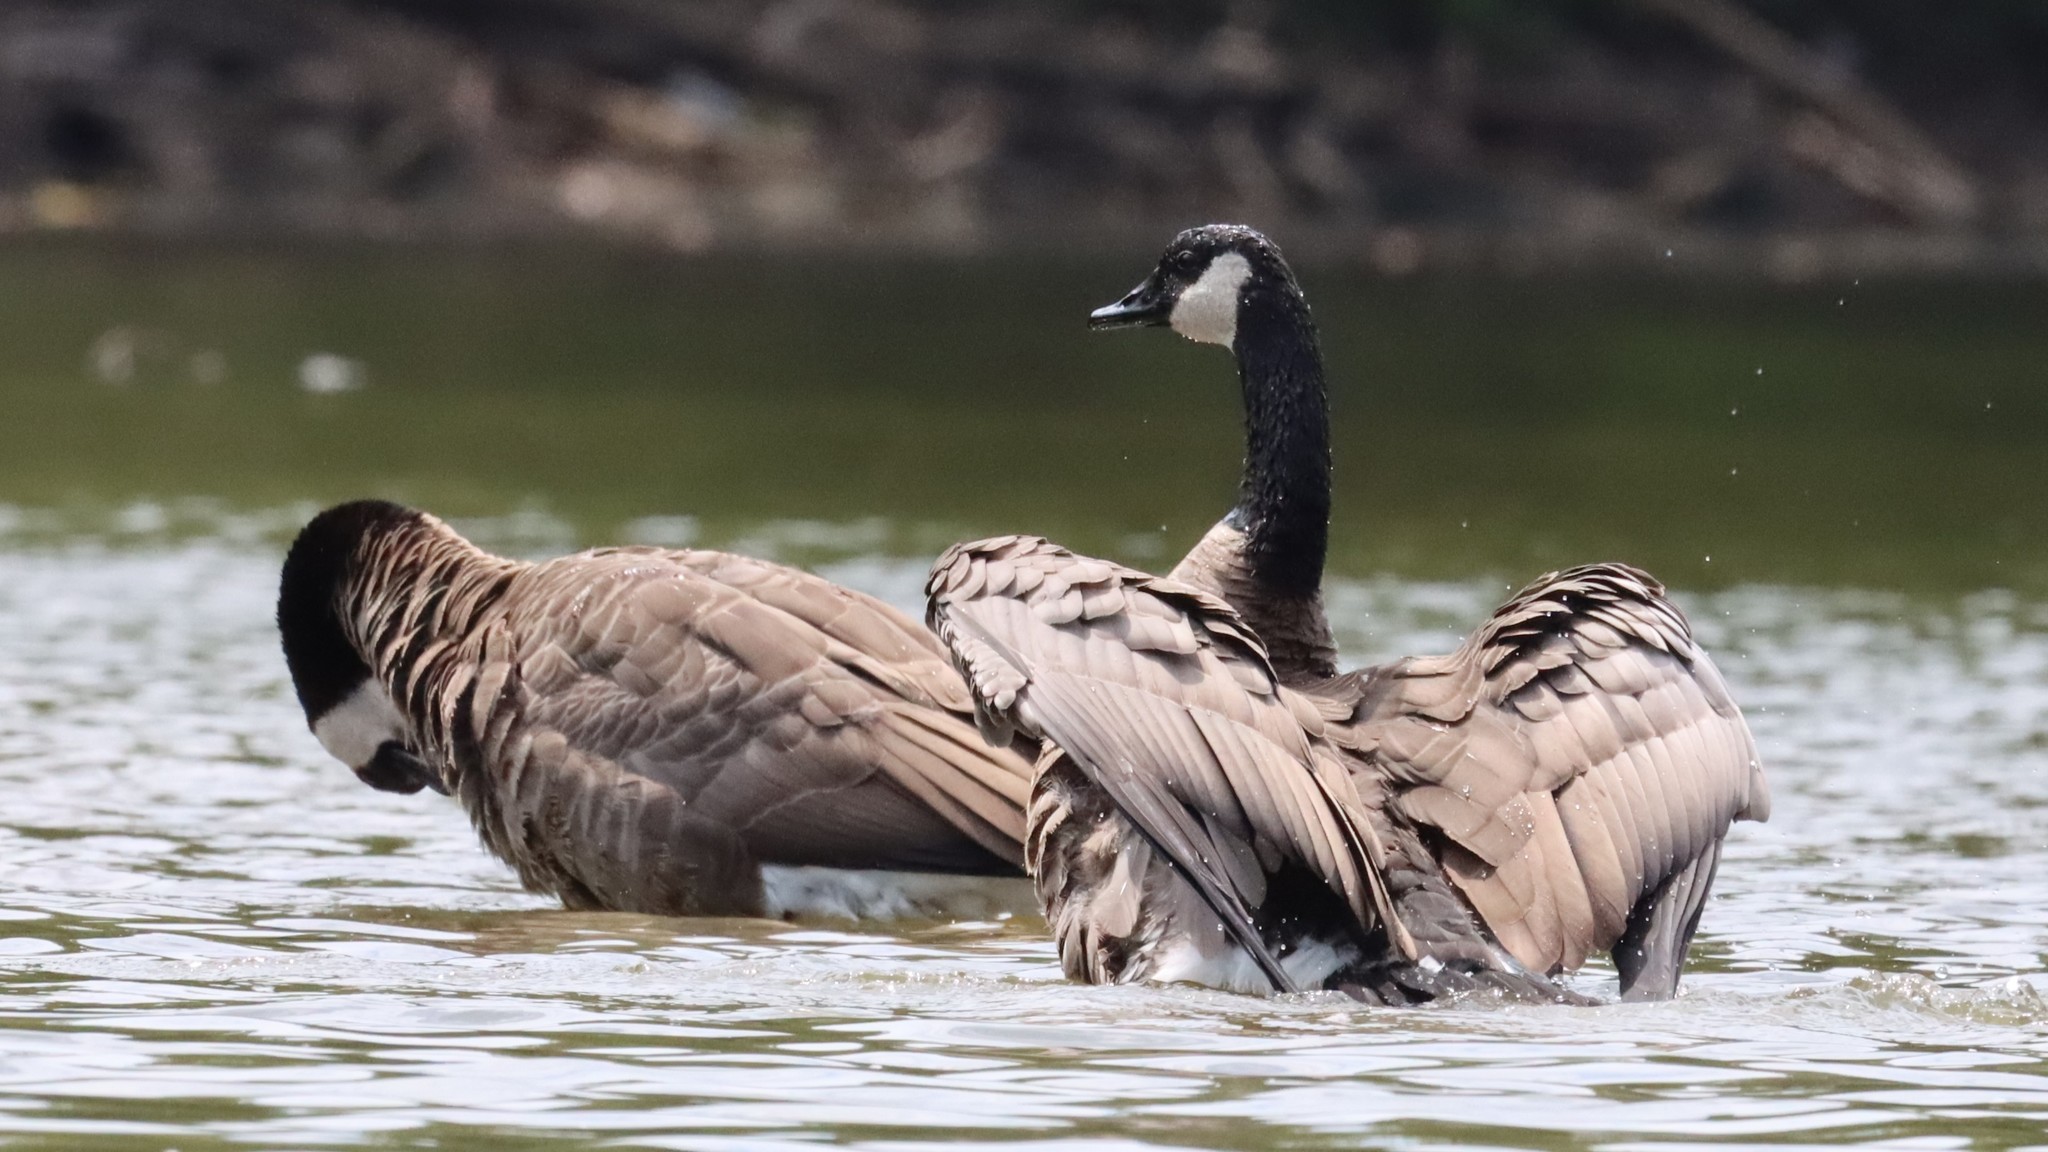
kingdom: Animalia
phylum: Chordata
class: Aves
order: Anseriformes
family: Anatidae
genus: Branta
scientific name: Branta canadensis
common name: Canada goose
